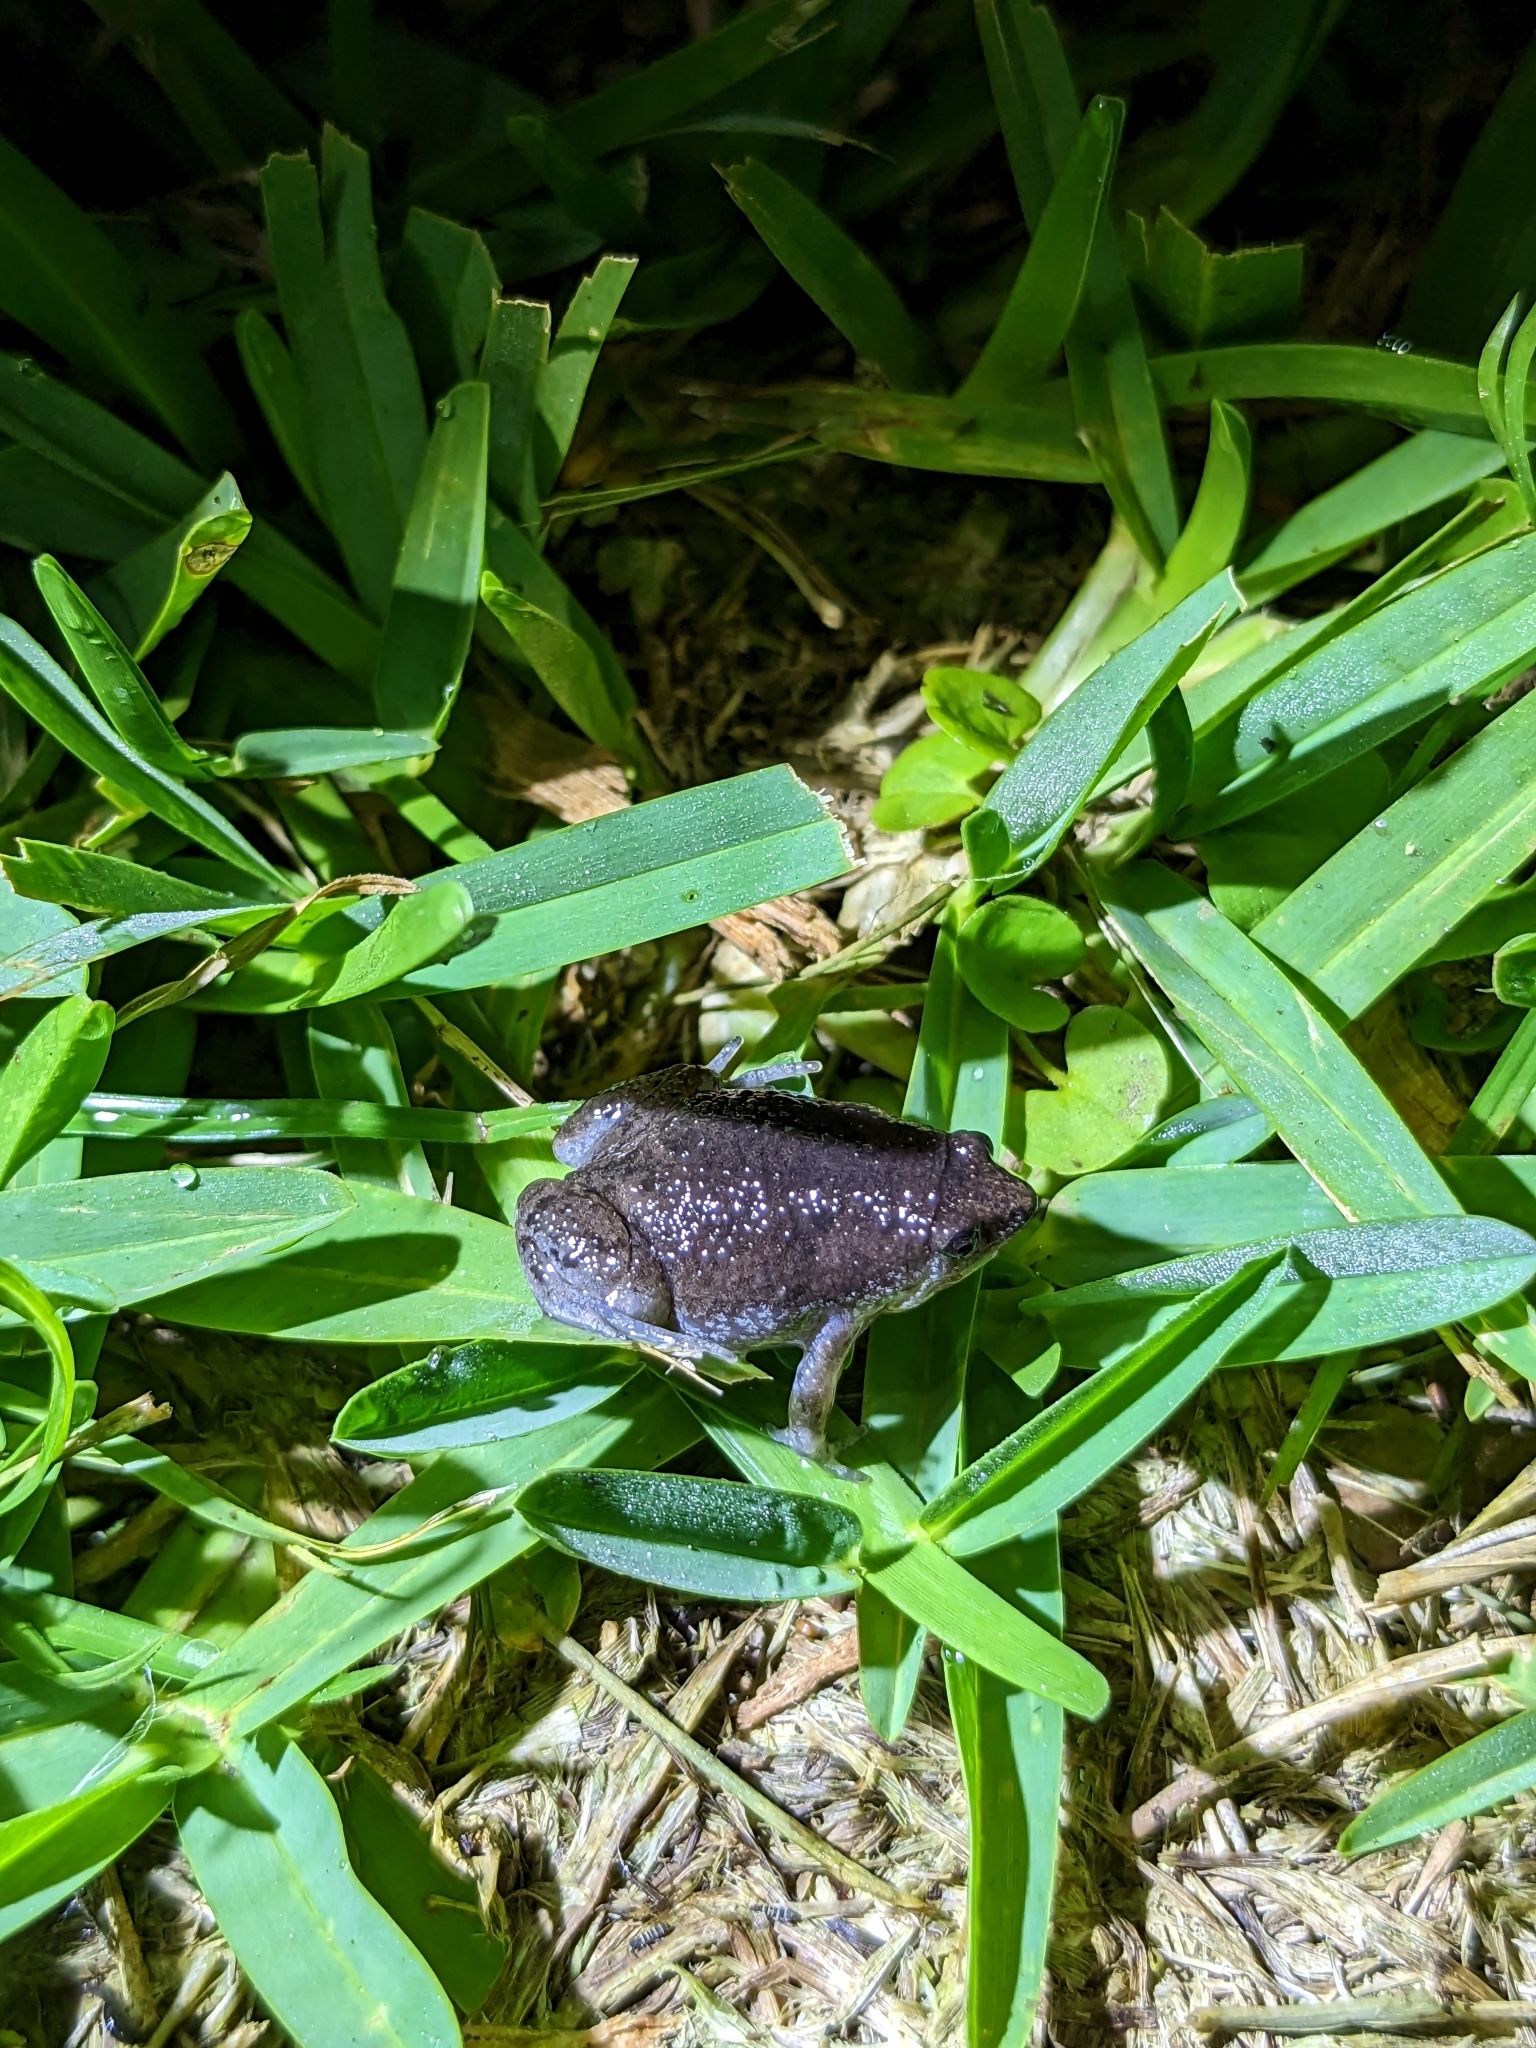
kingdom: Animalia
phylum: Chordata
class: Amphibia
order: Anura
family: Microhylidae
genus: Gastrophryne
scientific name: Gastrophryne carolinensis
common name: Eastern narrowmouth toad
